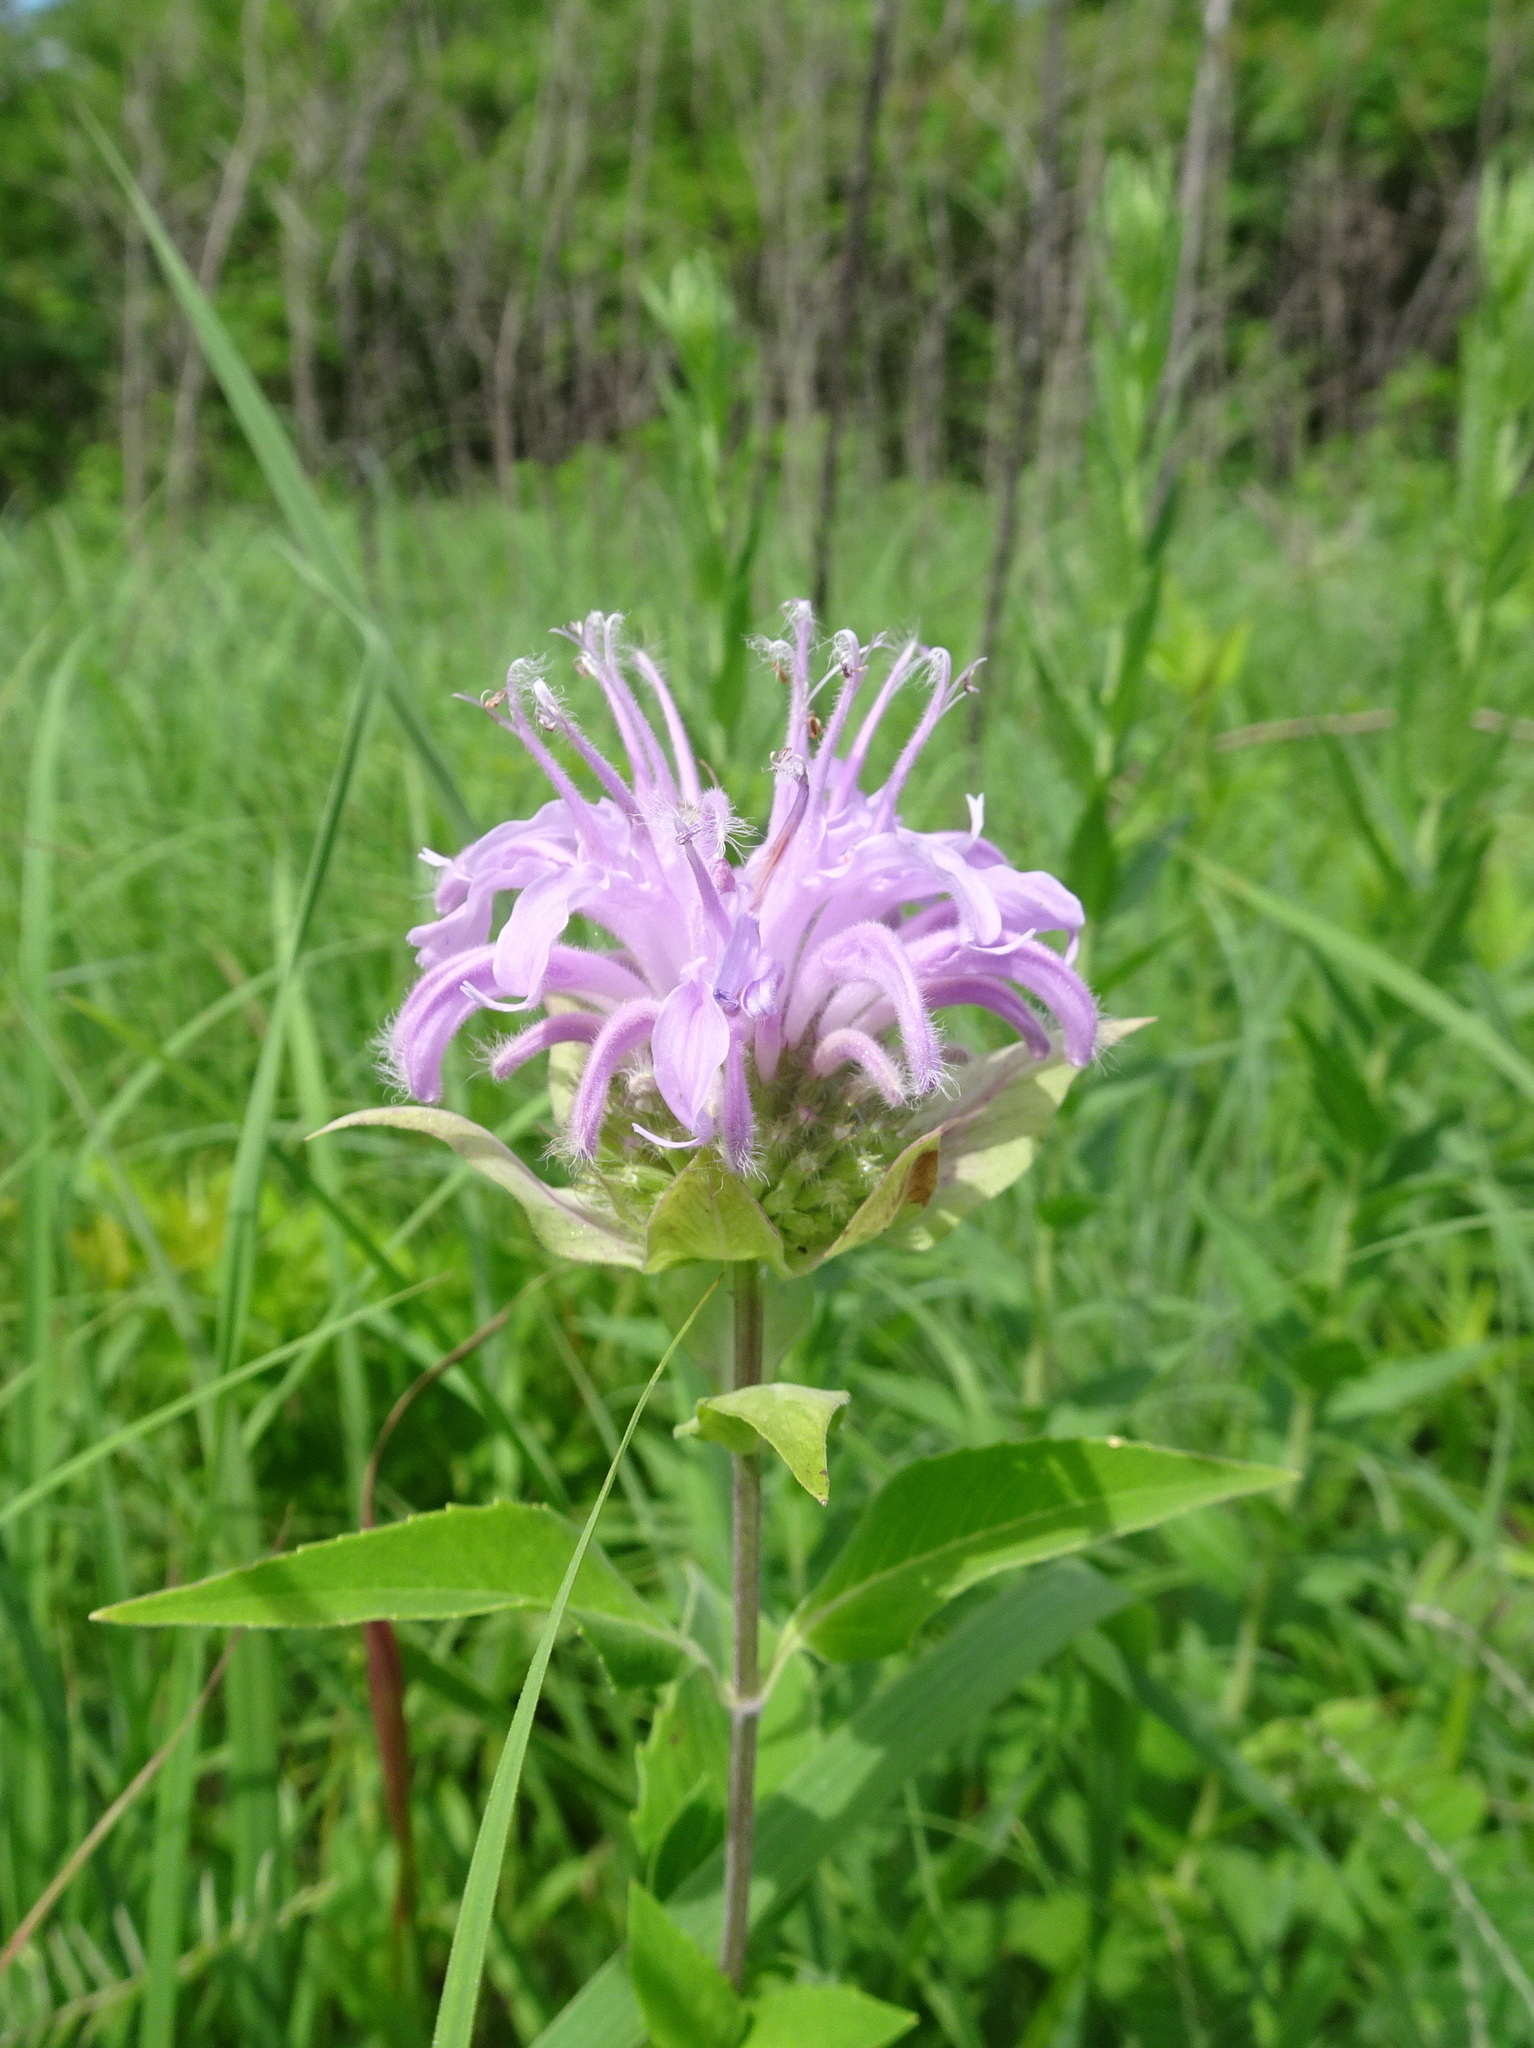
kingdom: Plantae
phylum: Tracheophyta
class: Magnoliopsida
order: Lamiales
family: Lamiaceae
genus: Monarda
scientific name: Monarda fistulosa
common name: Purple beebalm
